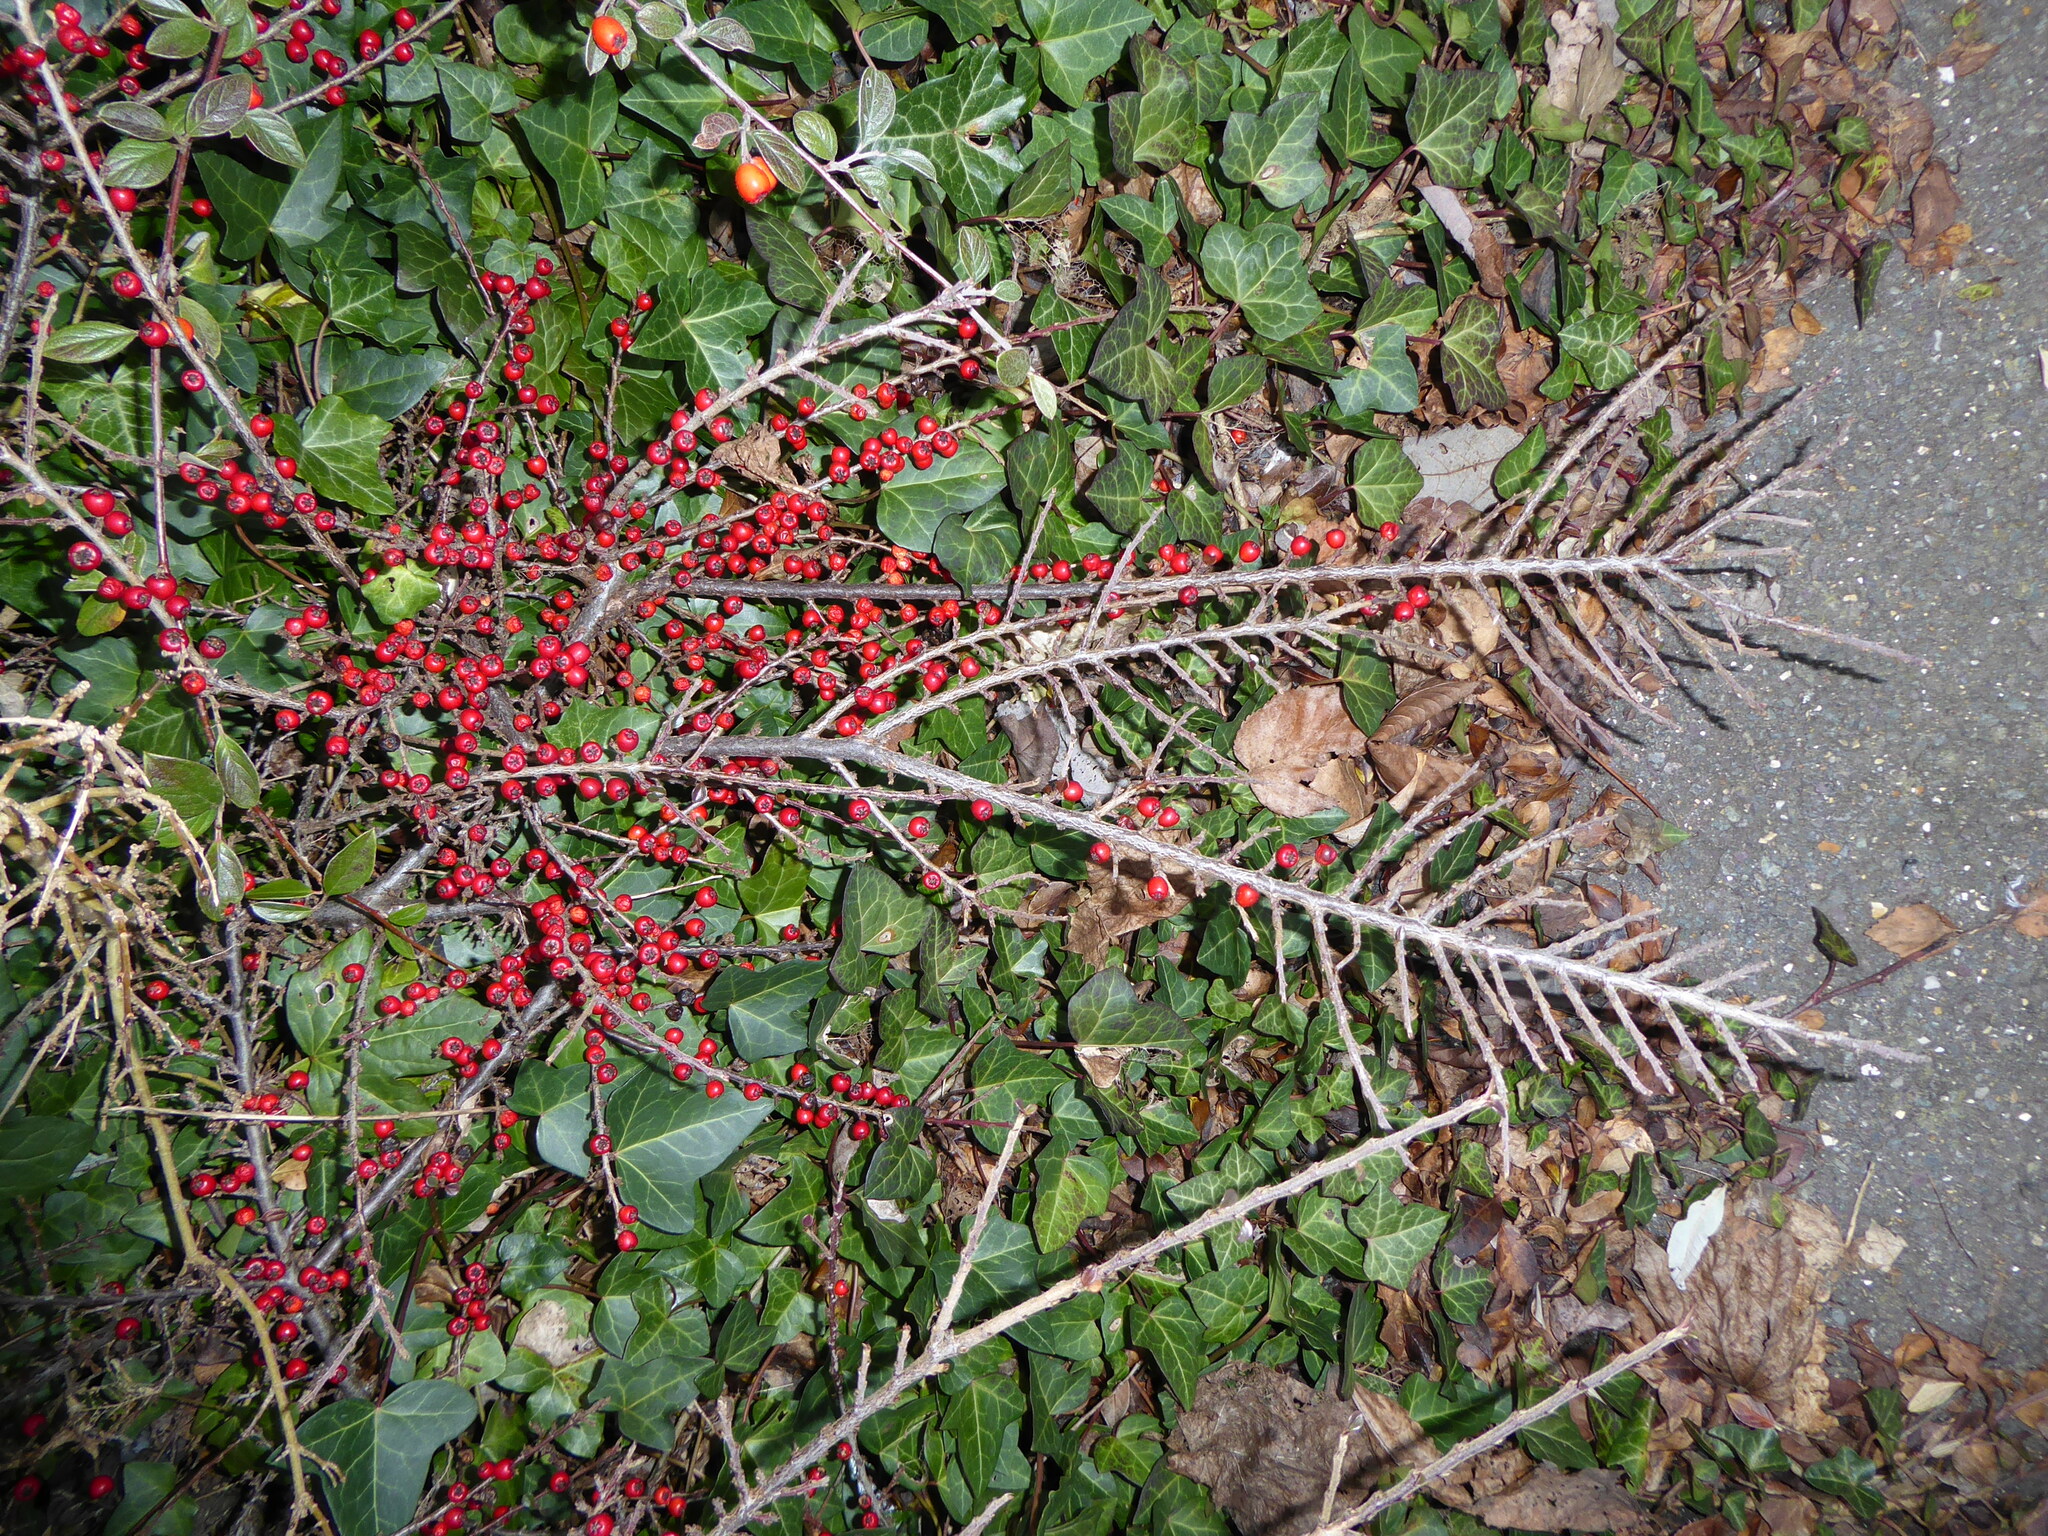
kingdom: Plantae
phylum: Tracheophyta
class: Magnoliopsida
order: Rosales
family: Rosaceae
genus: Cotoneaster
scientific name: Cotoneaster horizontalis
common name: Wall cotoneaster
